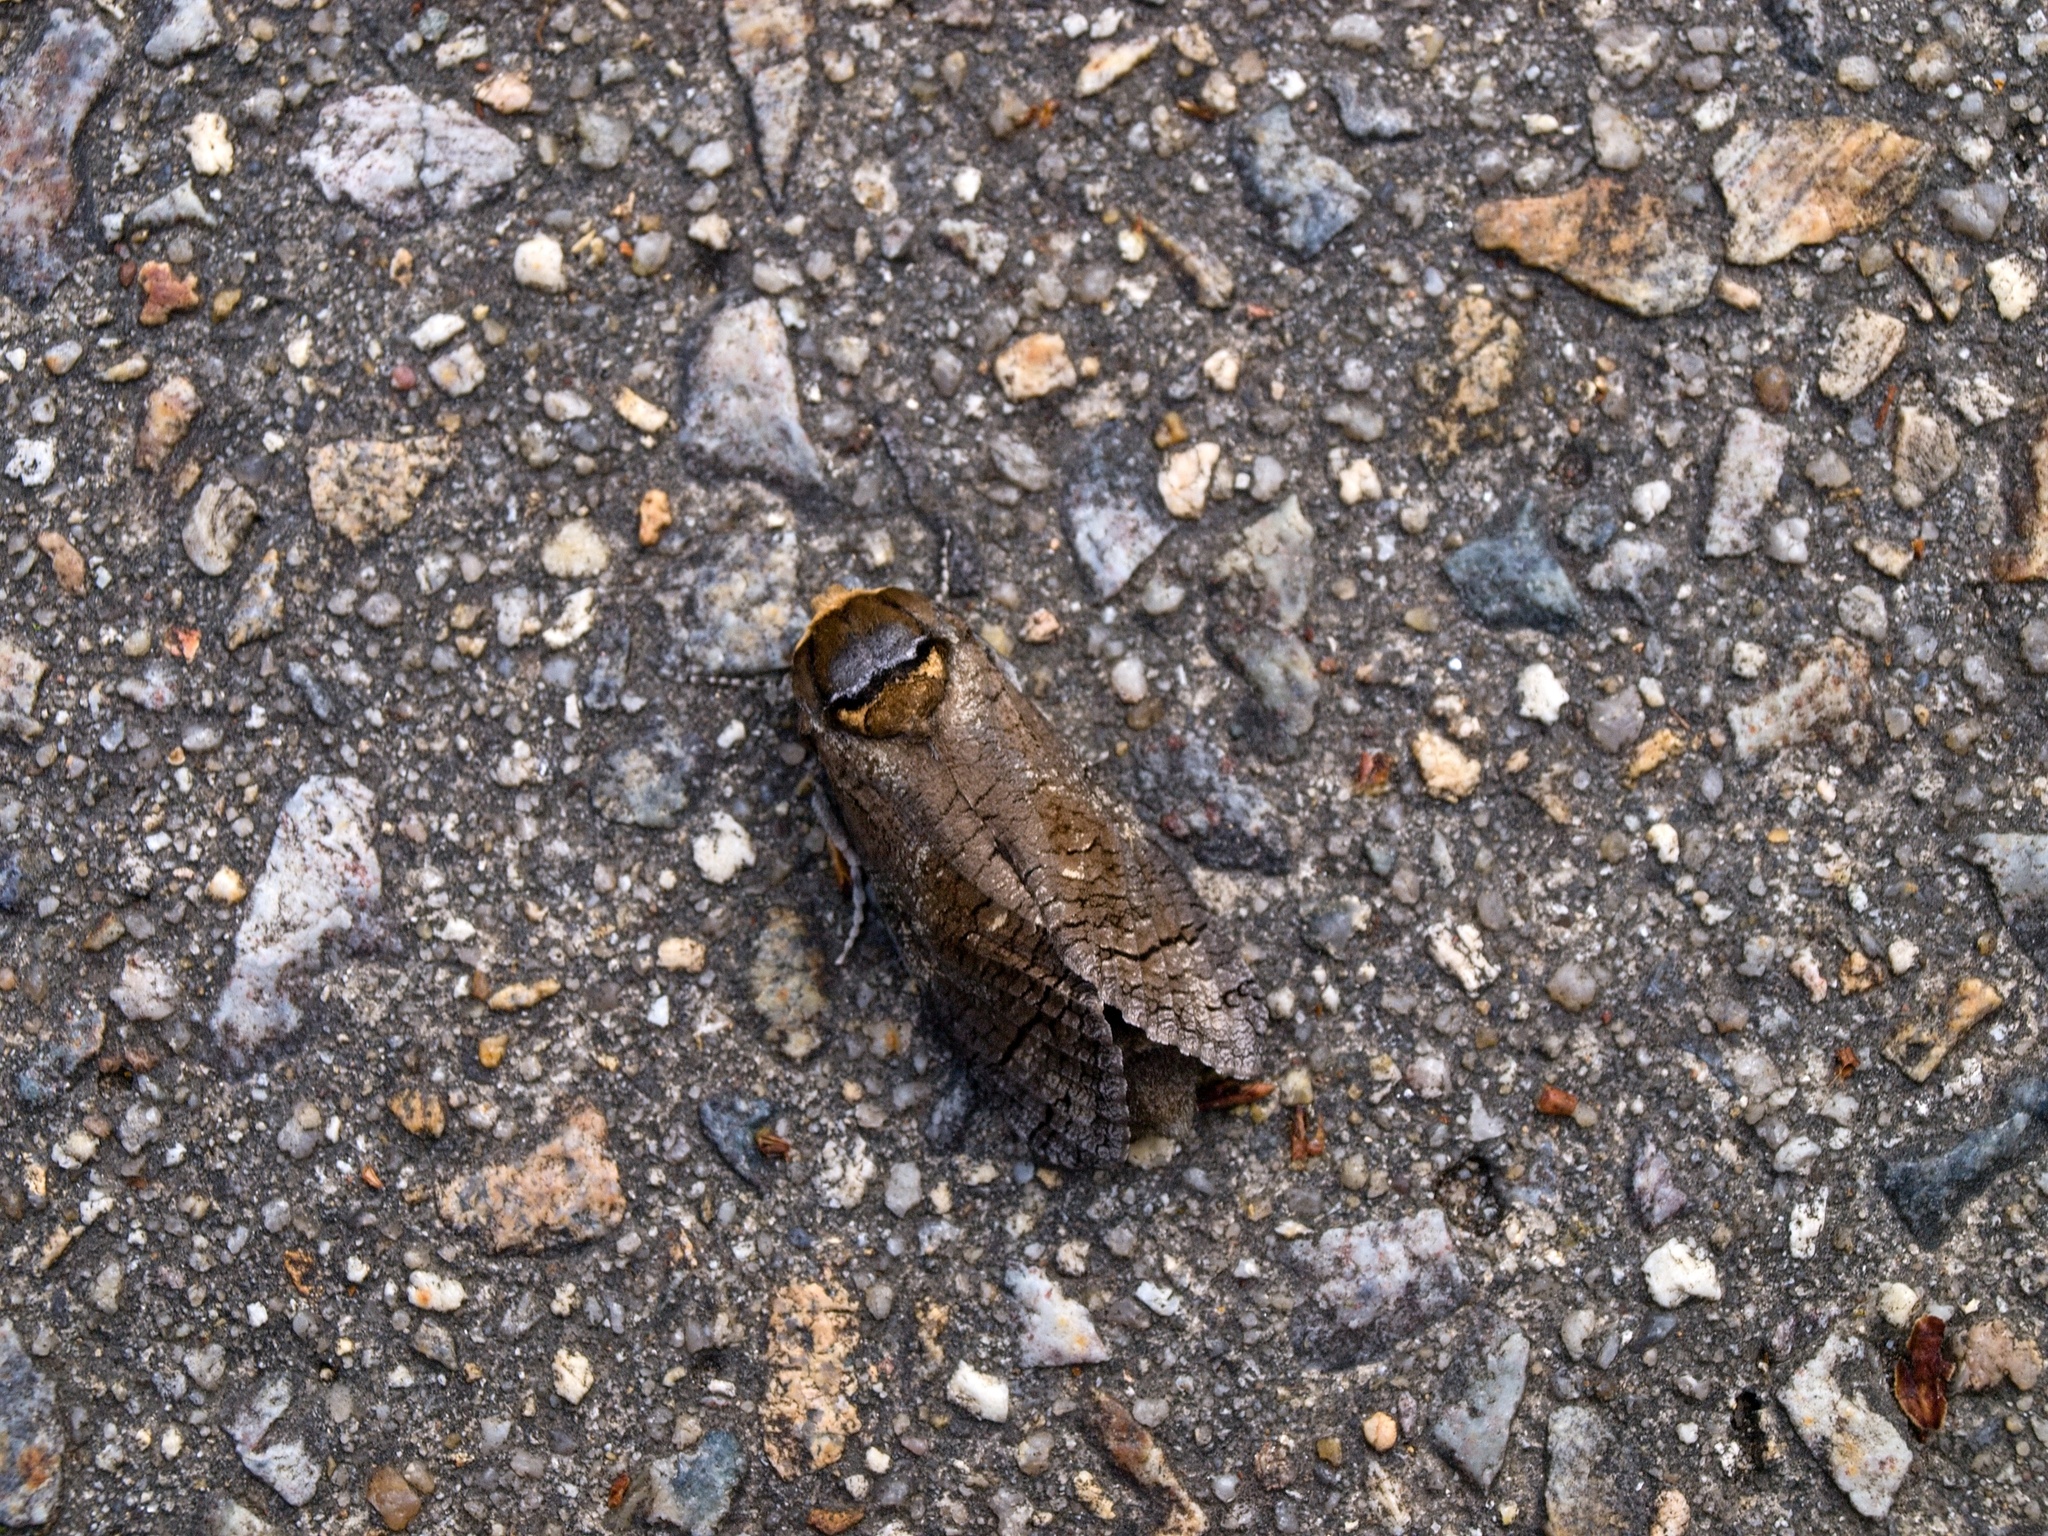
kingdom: Animalia
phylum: Arthropoda
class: Insecta
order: Lepidoptera
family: Cossidae
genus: Cossus
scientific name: Cossus cossus
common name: Goat moth
